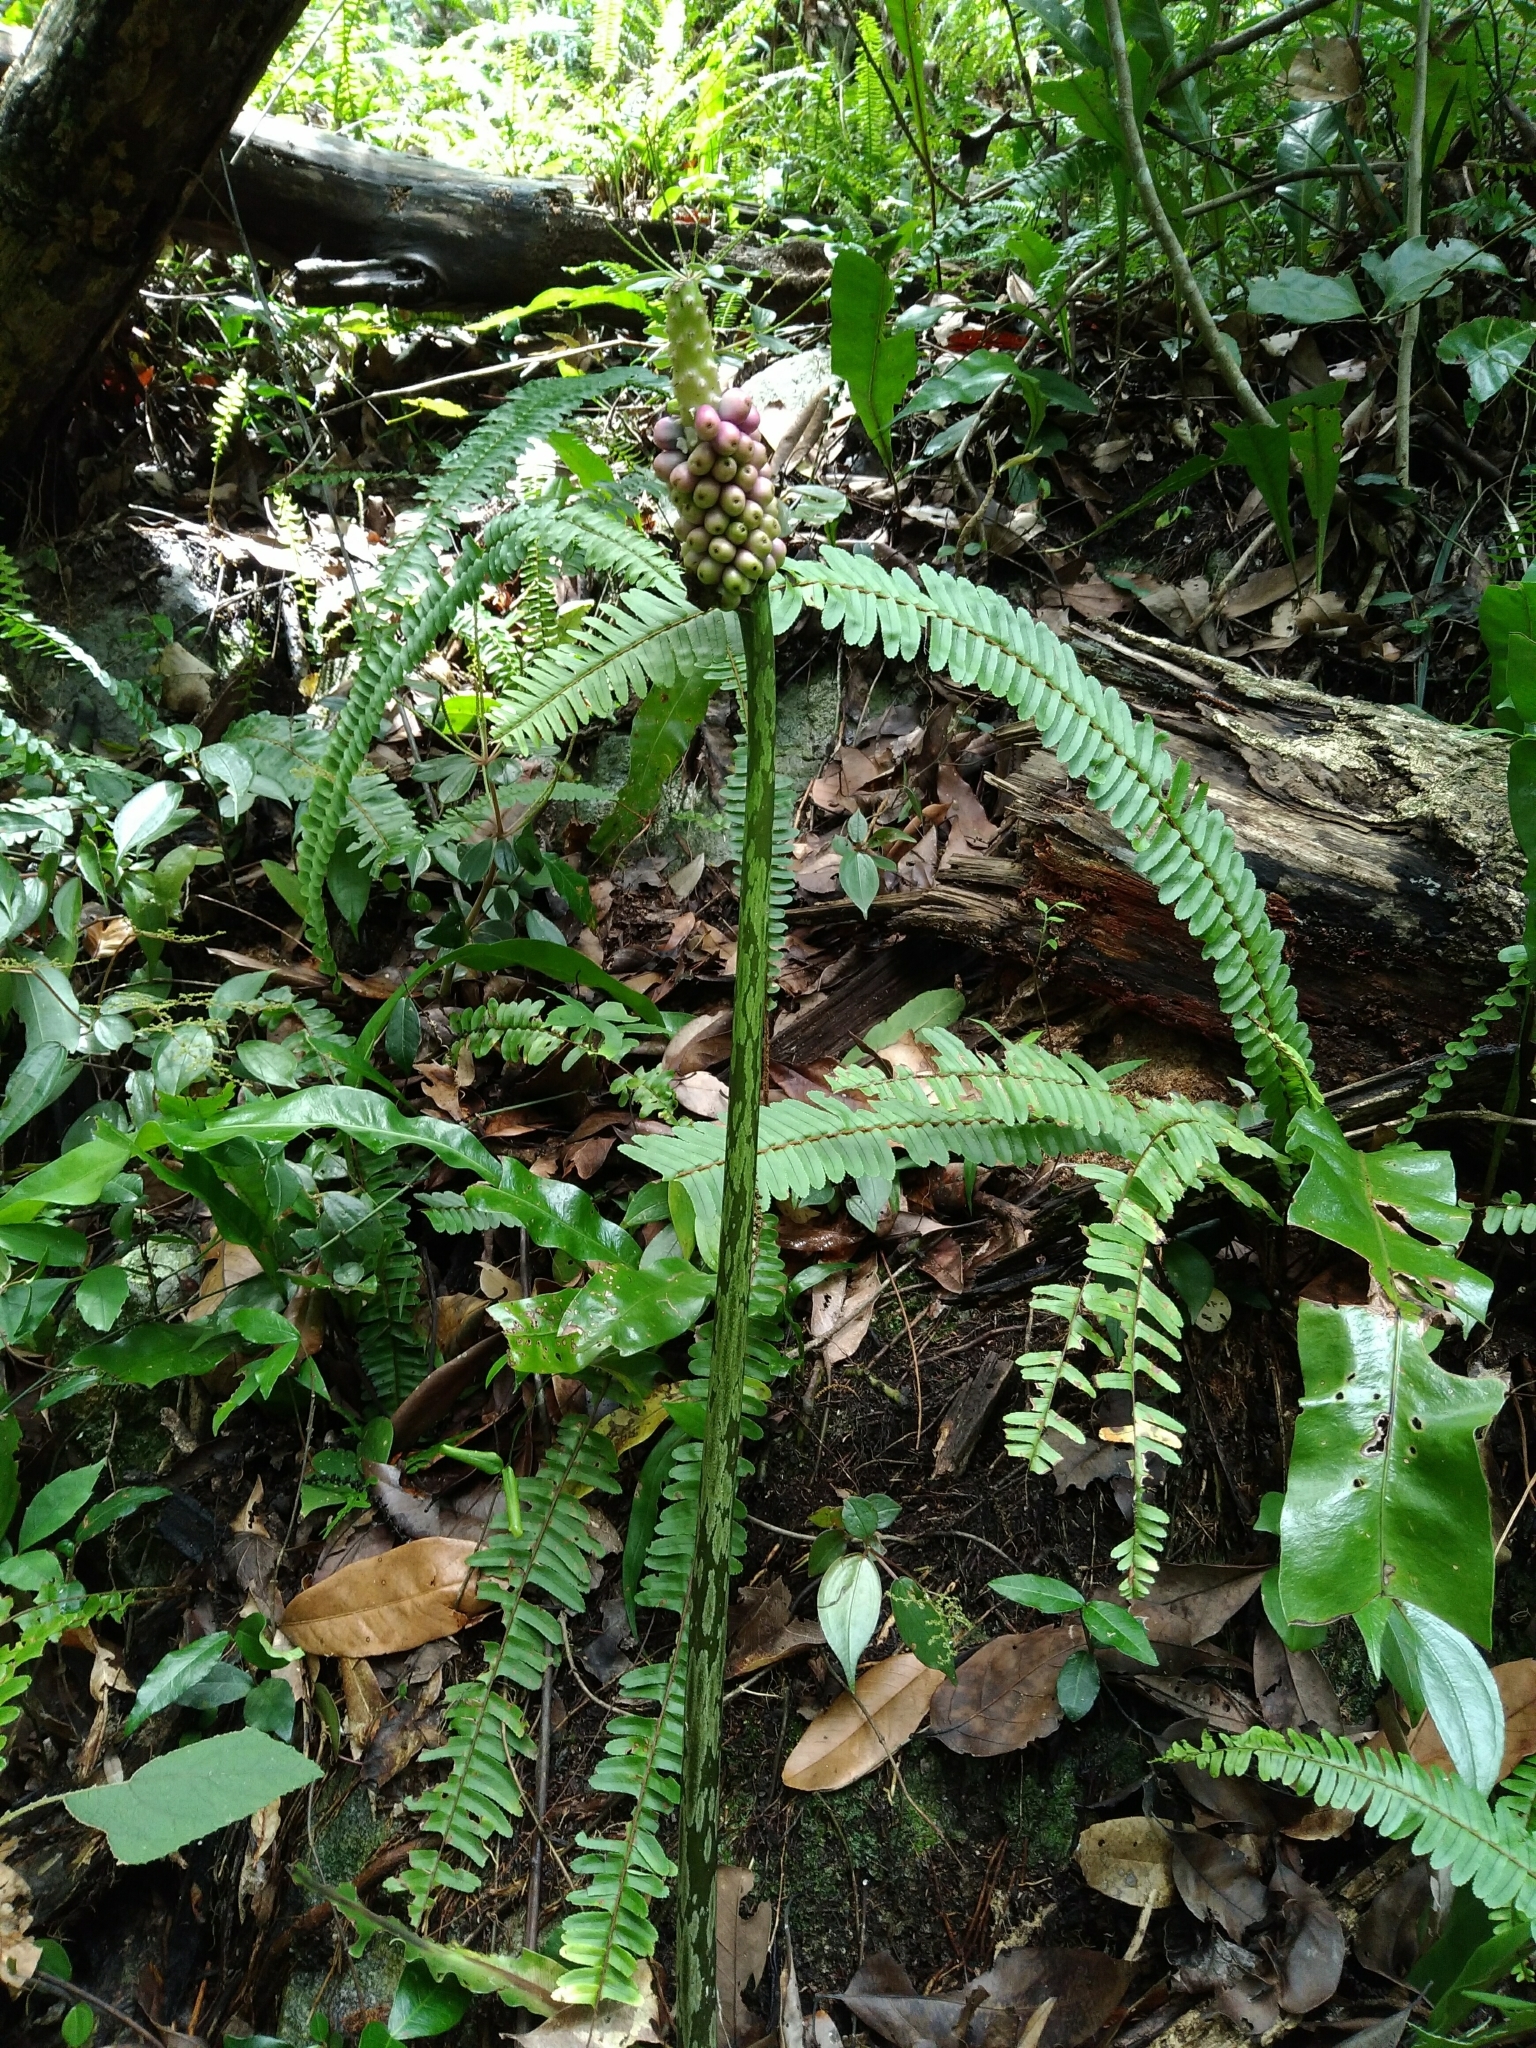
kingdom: Plantae
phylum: Tracheophyta
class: Liliopsida
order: Alismatales
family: Araceae
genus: Amorphophallus
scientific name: Amorphophallus kiusianus
